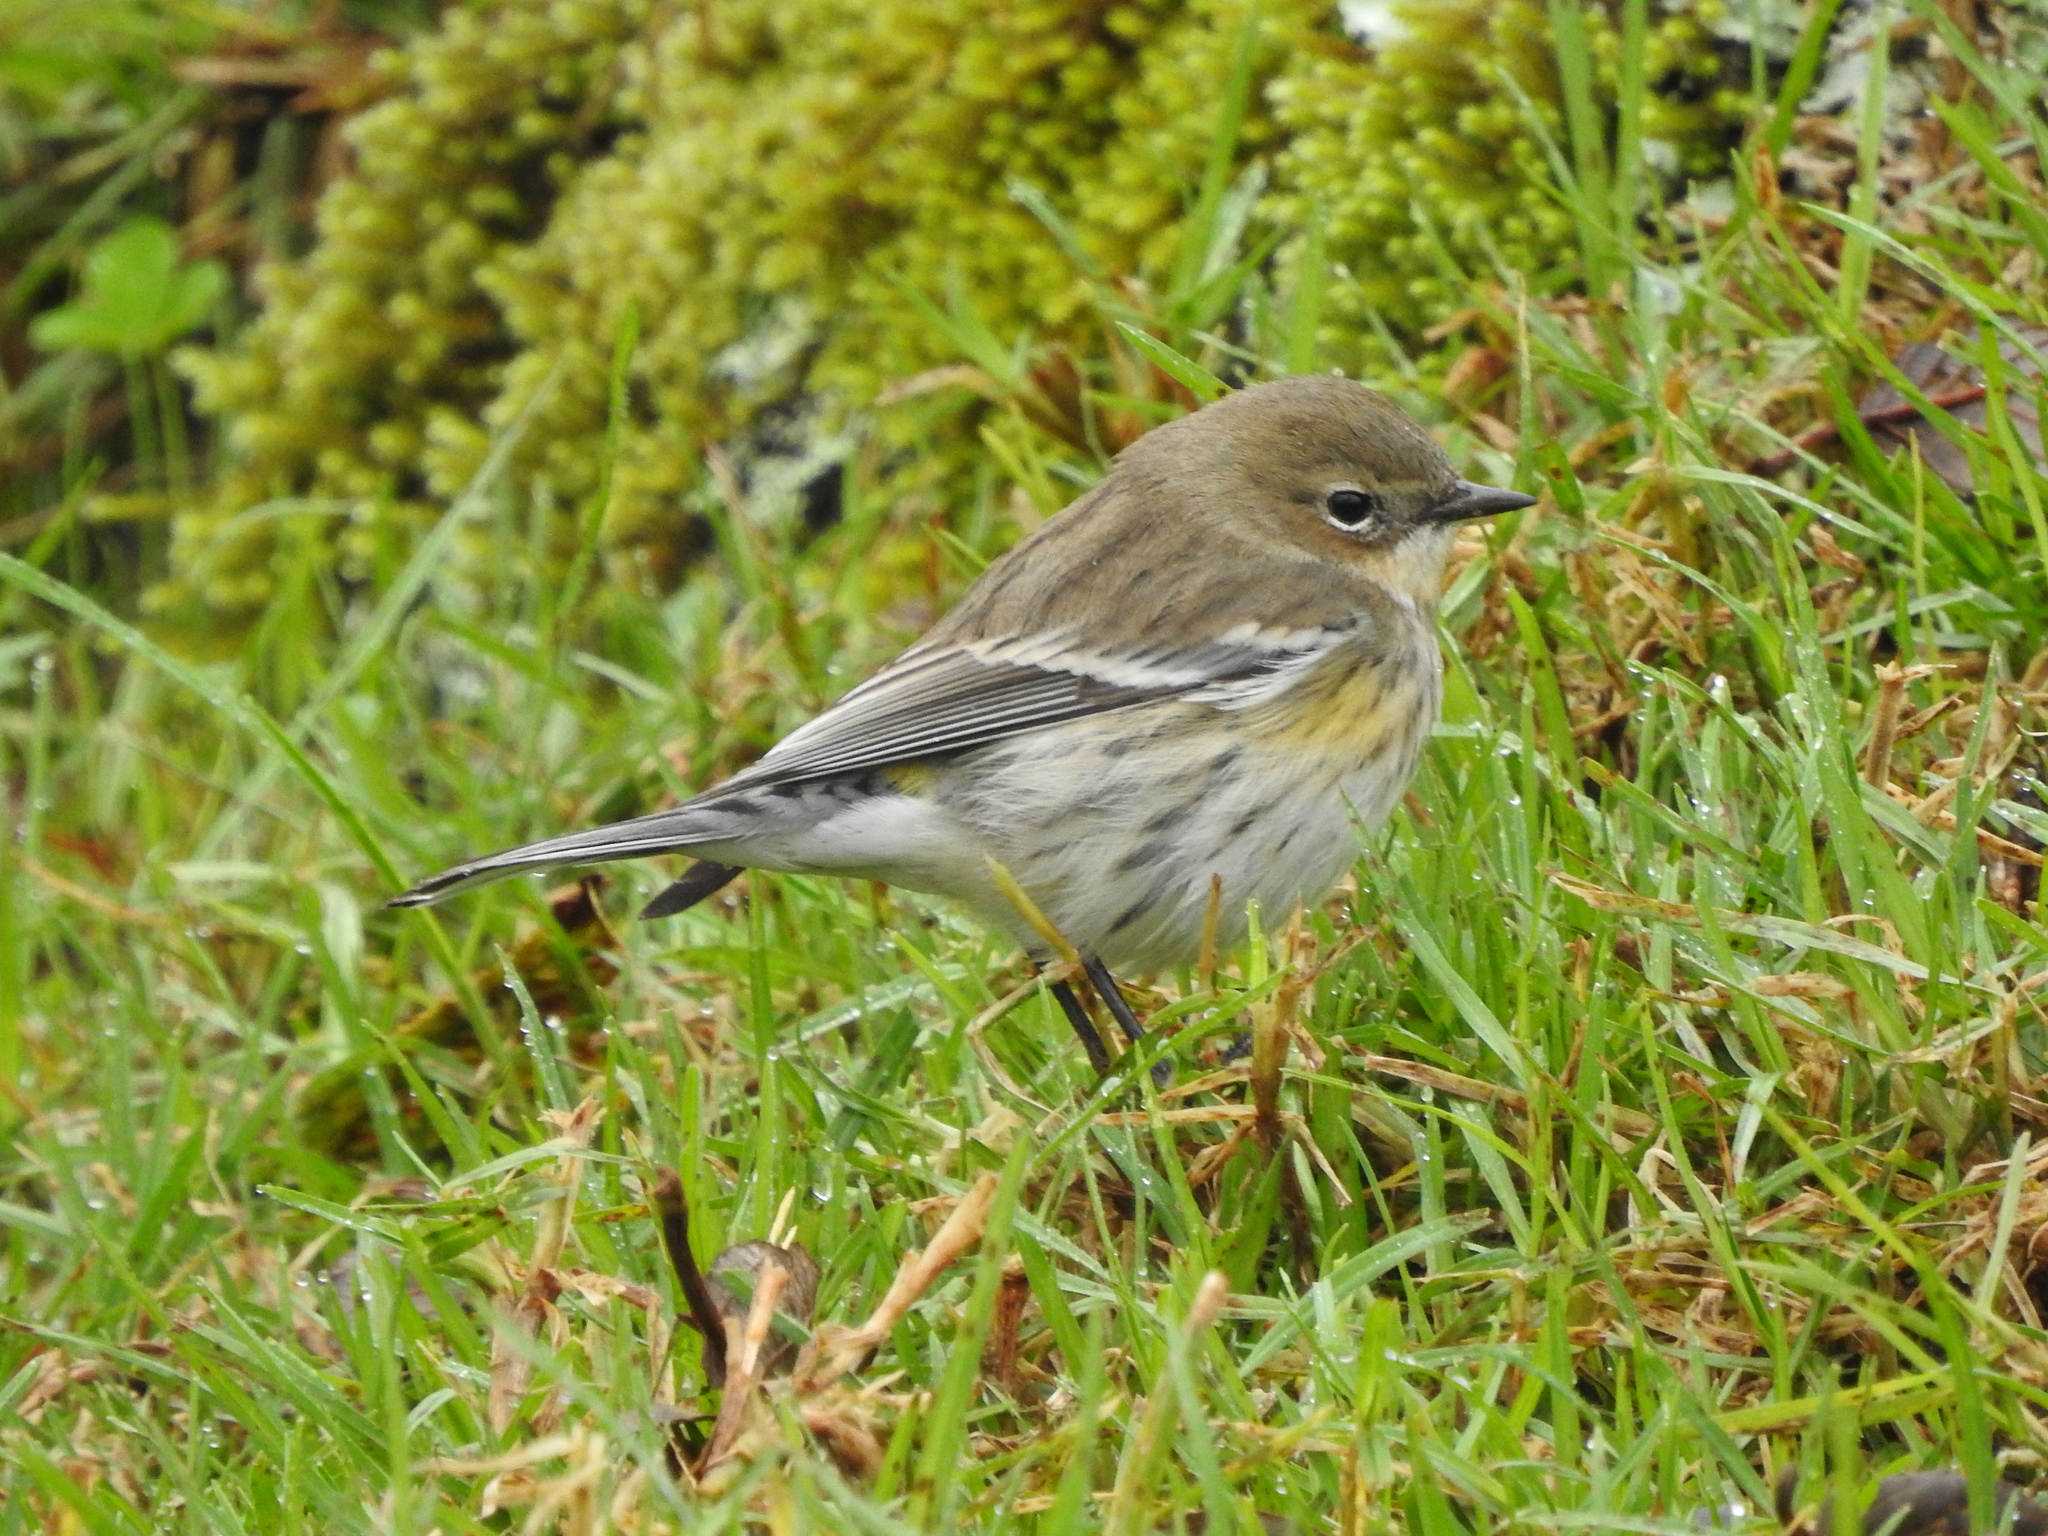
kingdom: Animalia
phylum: Chordata
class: Aves
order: Passeriformes
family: Parulidae
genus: Setophaga
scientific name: Setophaga coronata
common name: Myrtle warbler
